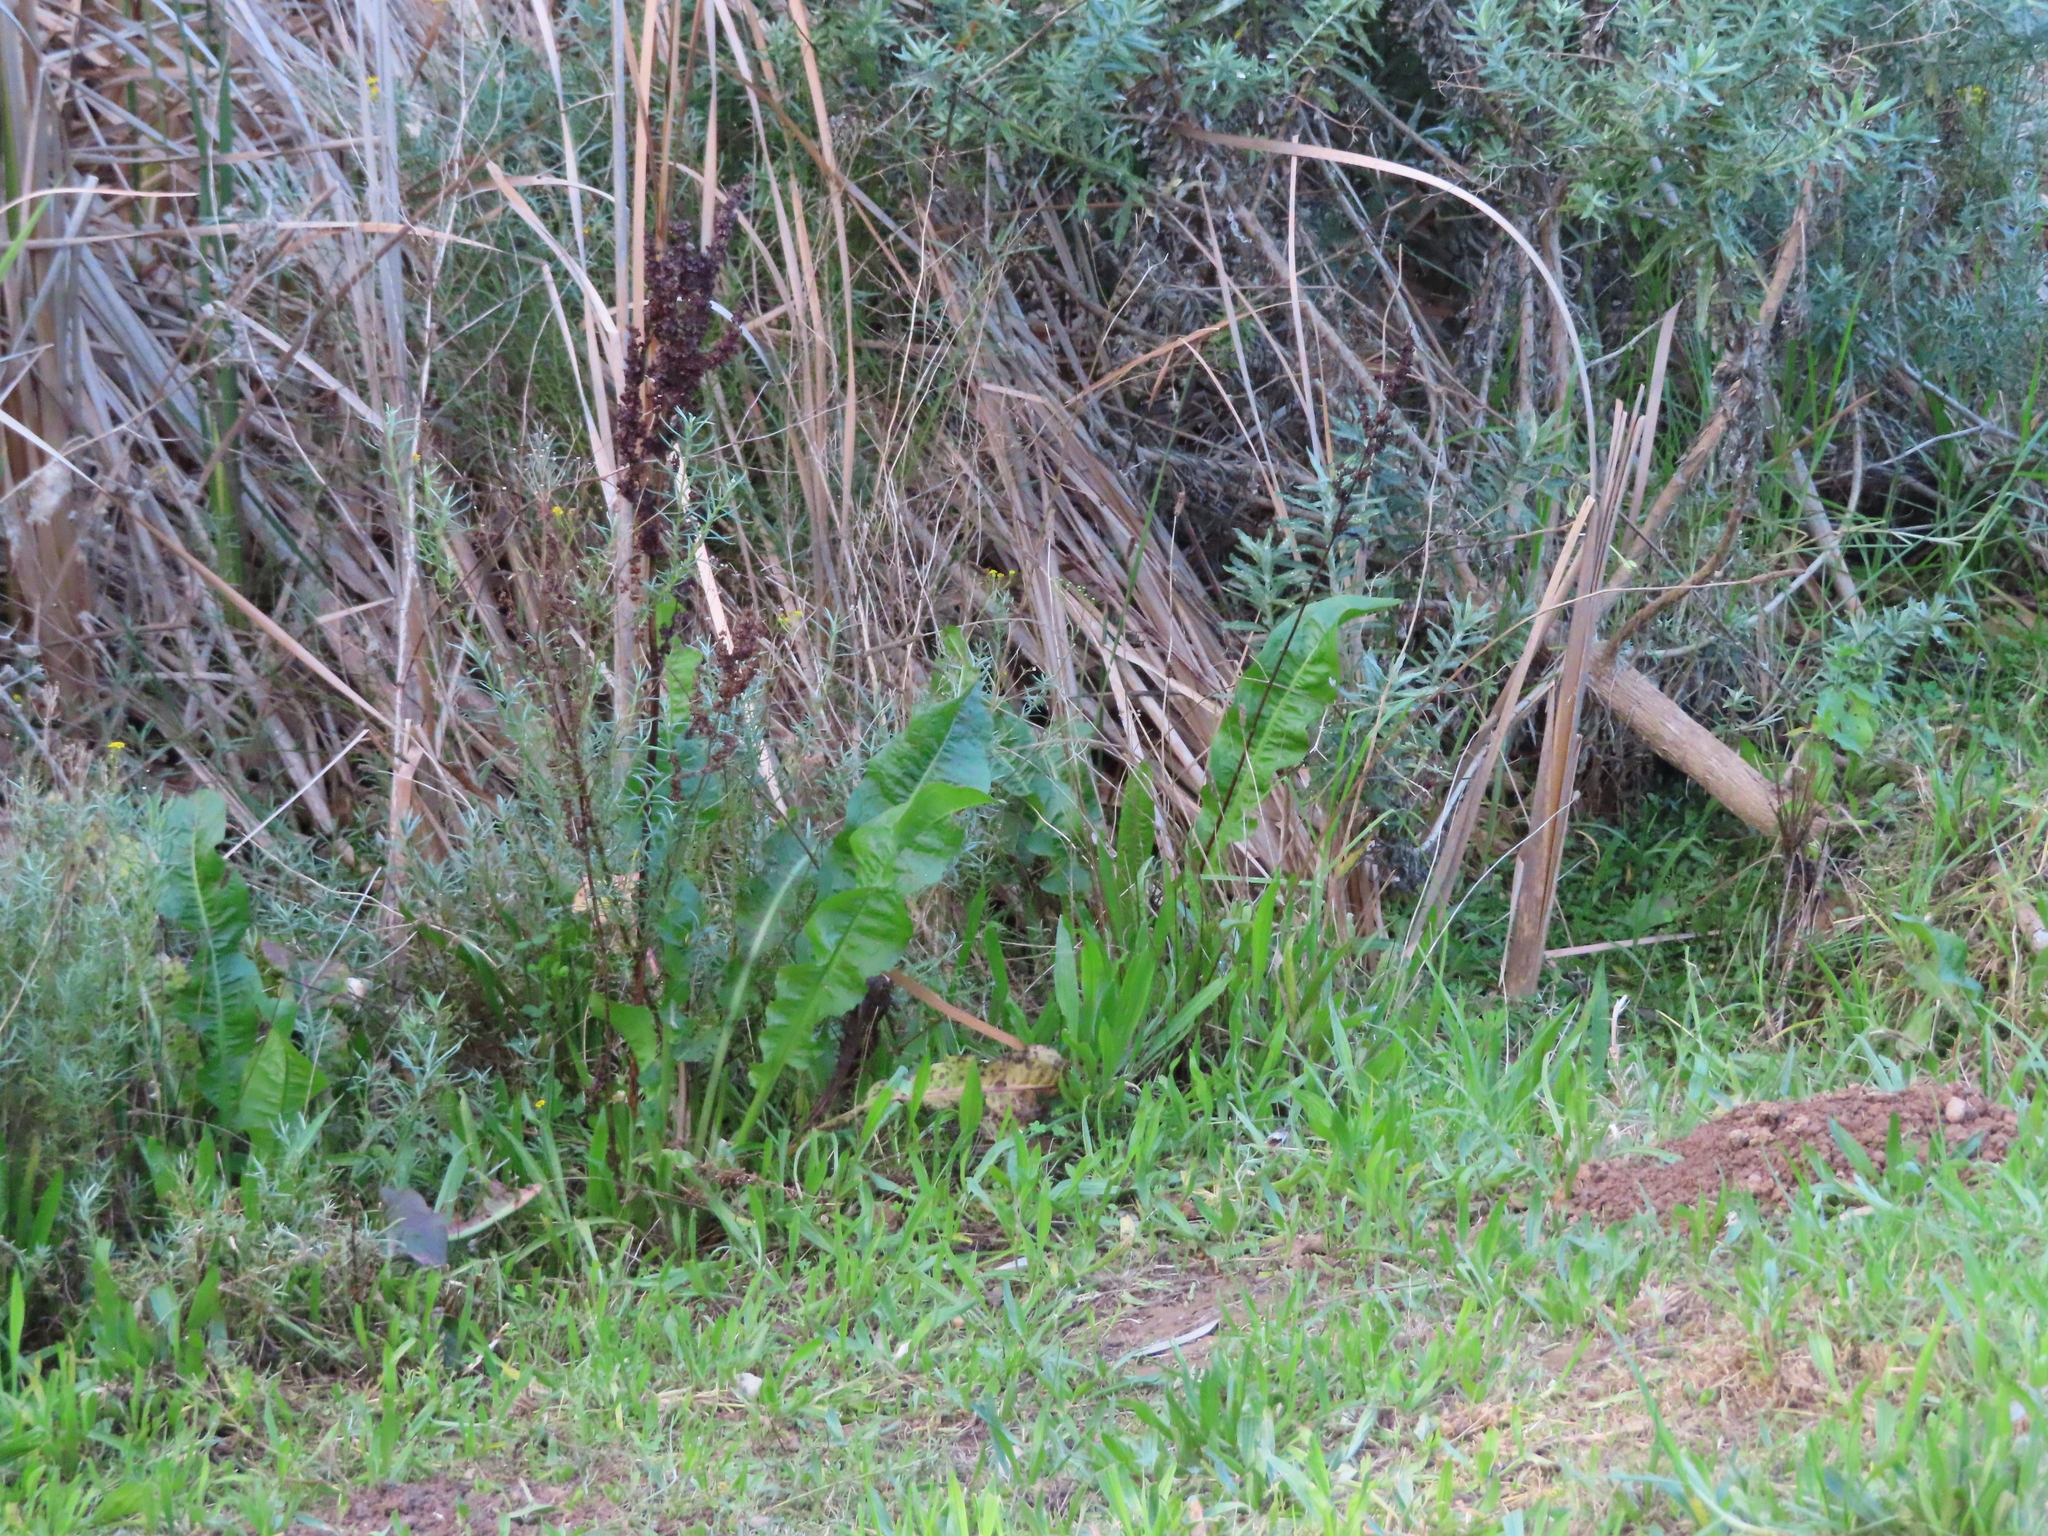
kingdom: Plantae
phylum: Tracheophyta
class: Magnoliopsida
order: Caryophyllales
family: Polygonaceae
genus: Rumex
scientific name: Rumex crispus
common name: Curled dock
